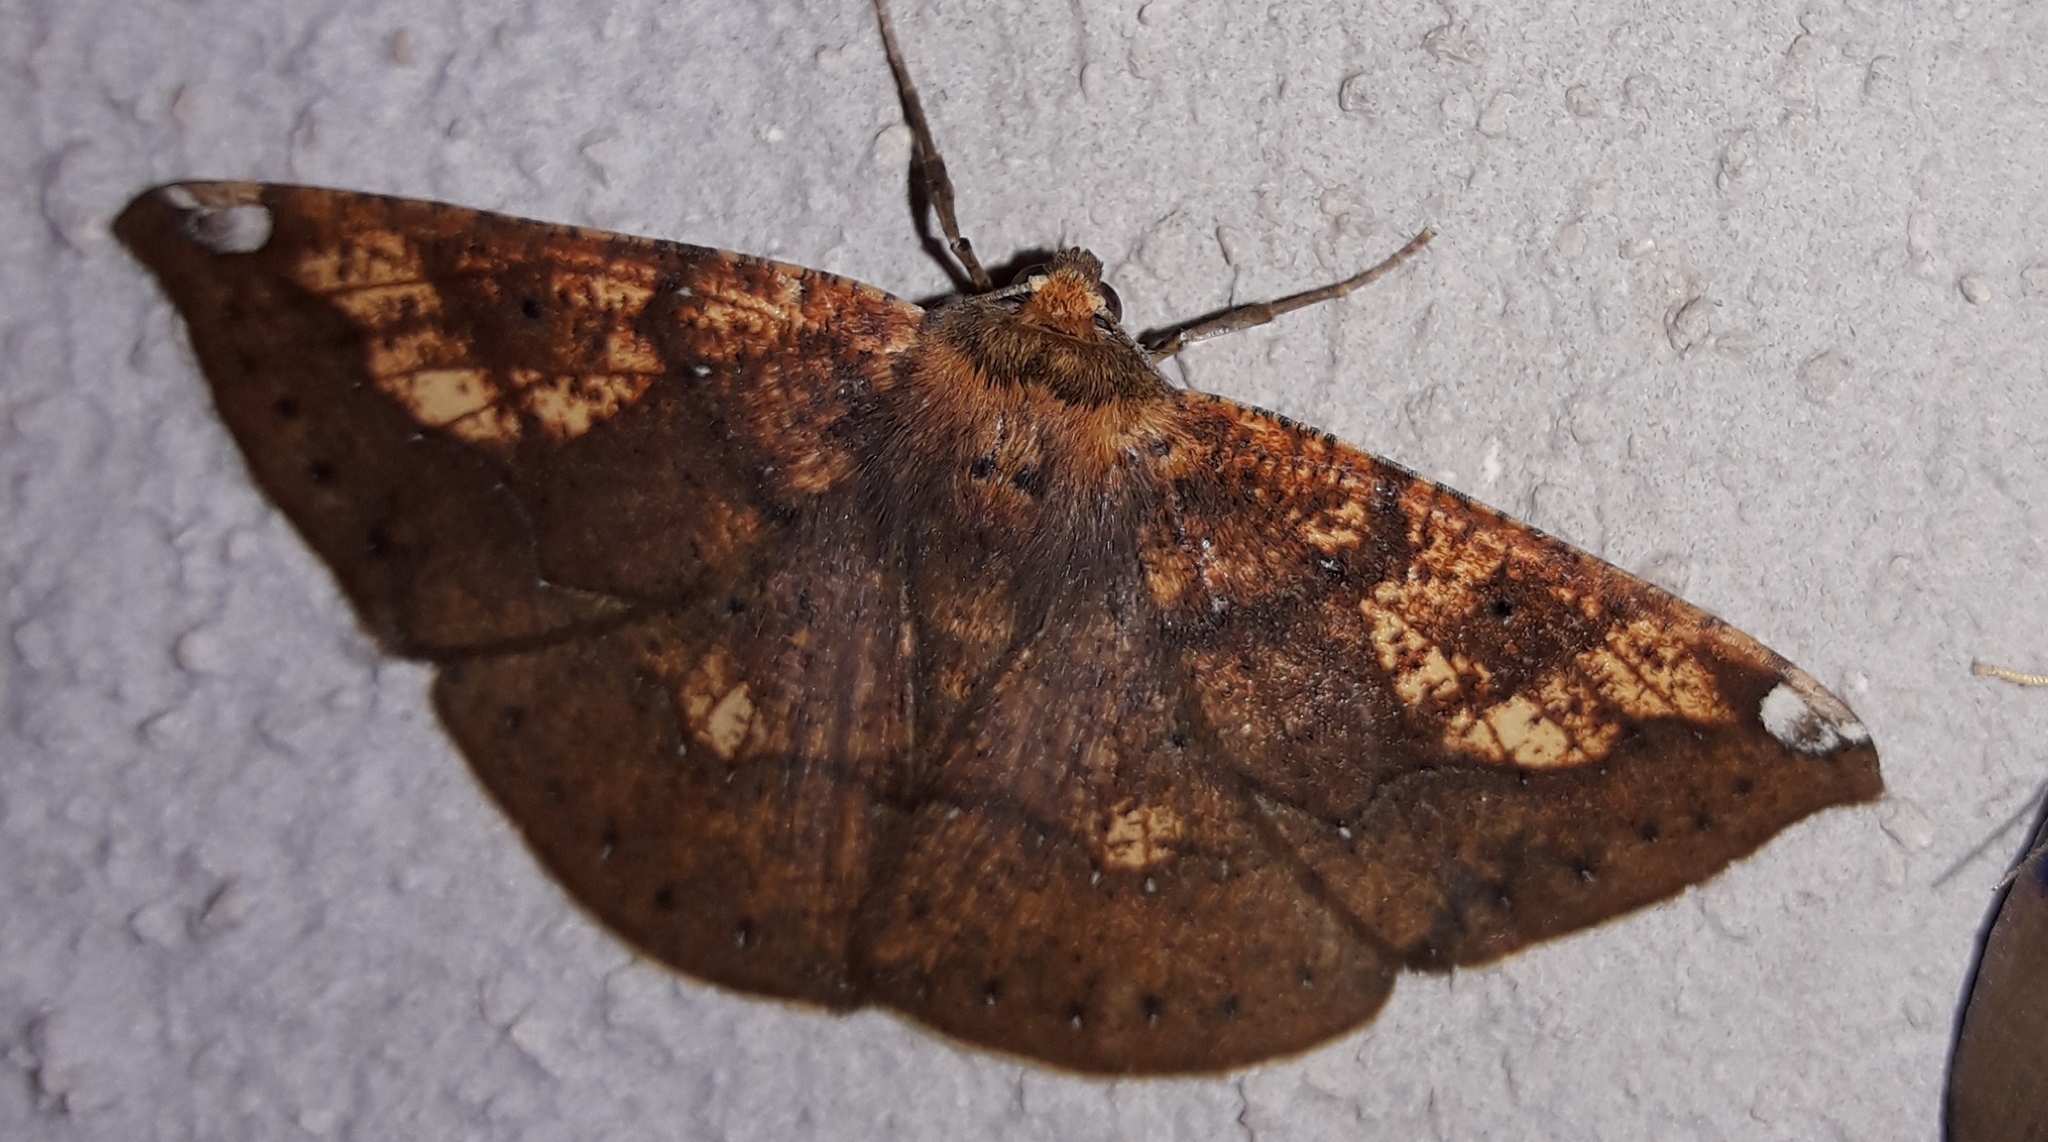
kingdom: Animalia
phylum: Arthropoda
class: Insecta
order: Lepidoptera
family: Geometridae
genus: Acrosemia
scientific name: Acrosemia tigrata
